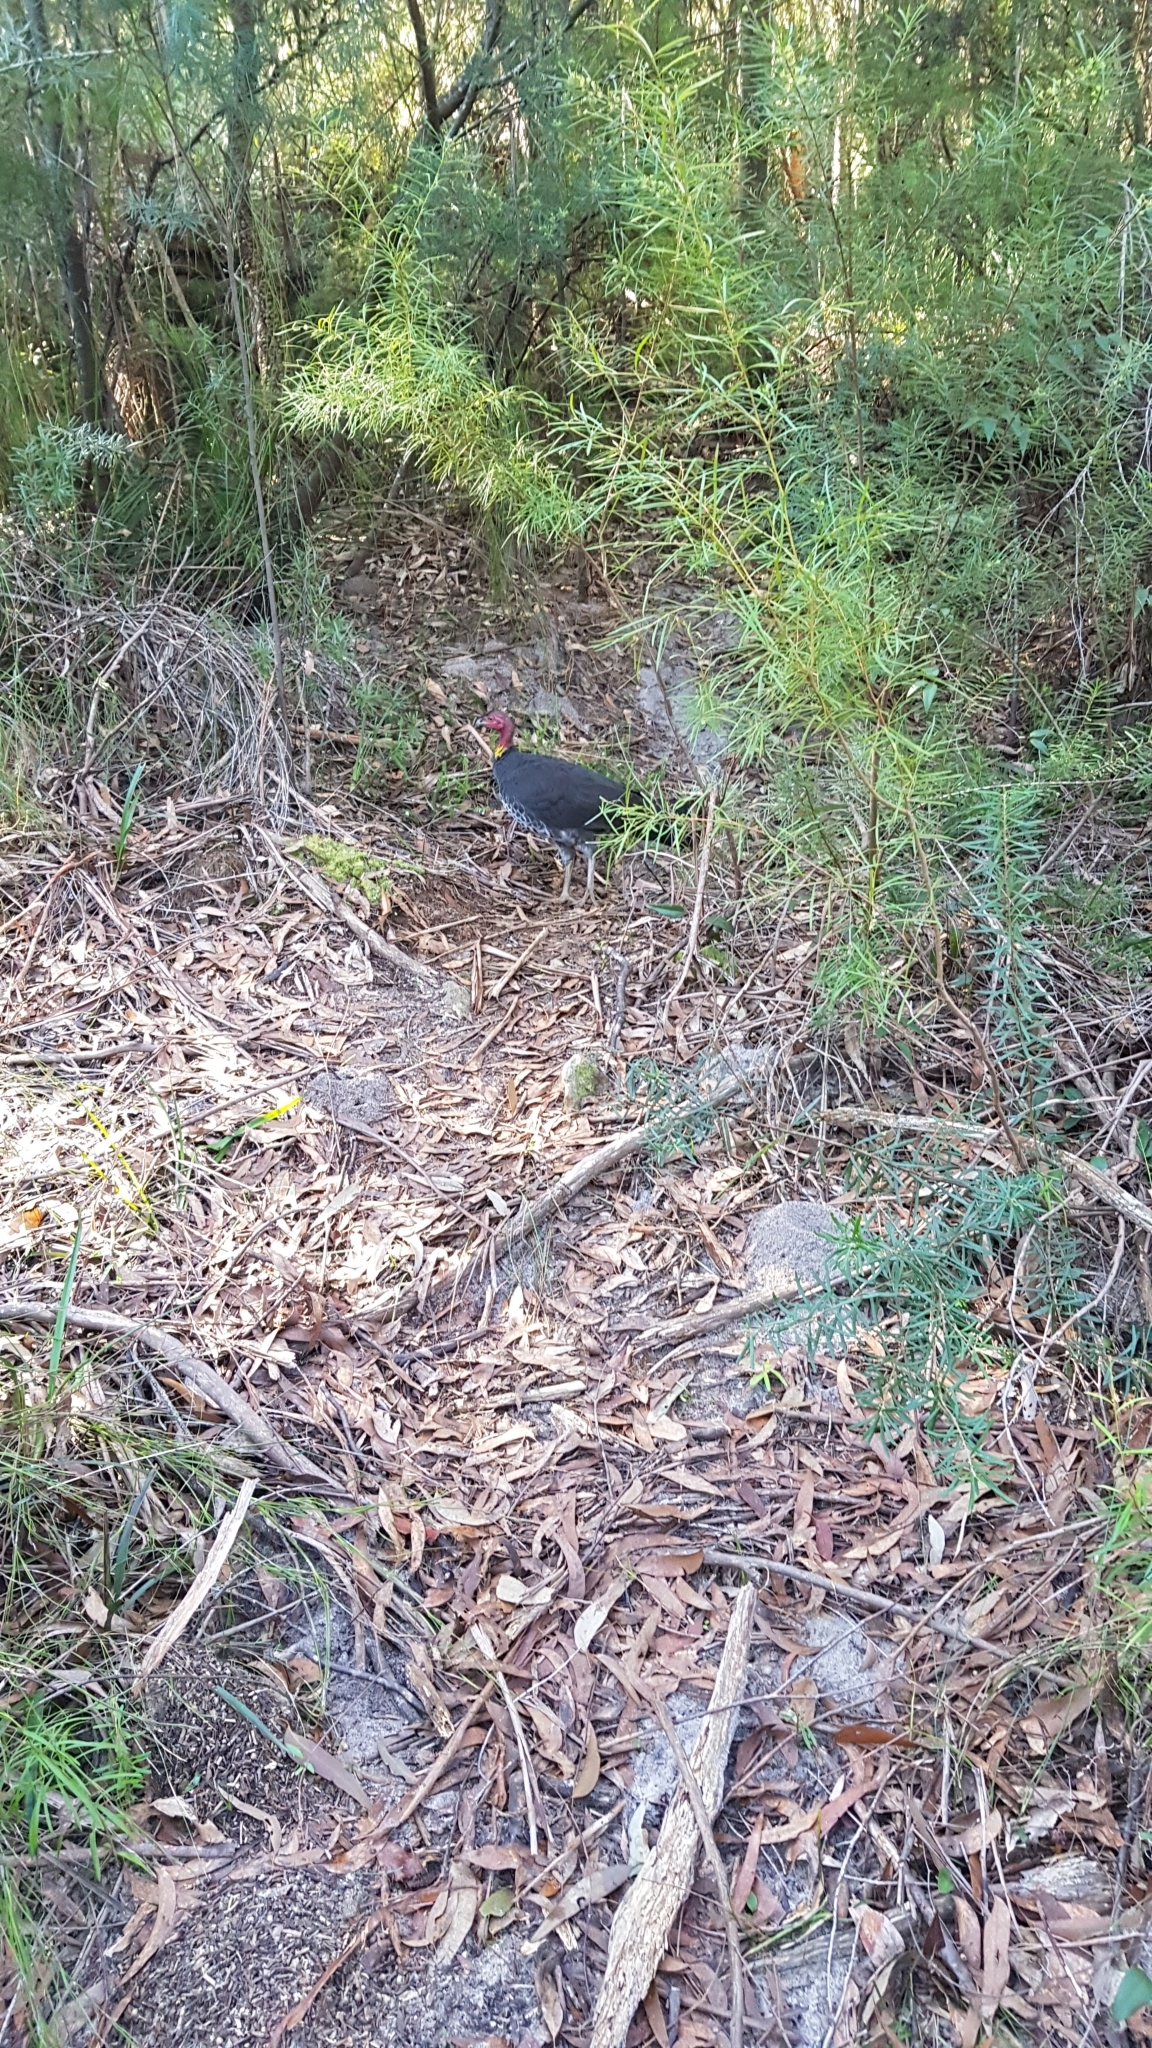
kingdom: Animalia
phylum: Chordata
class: Aves
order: Galliformes
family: Megapodiidae
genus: Alectura
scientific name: Alectura lathami
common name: Australian brushturkey
